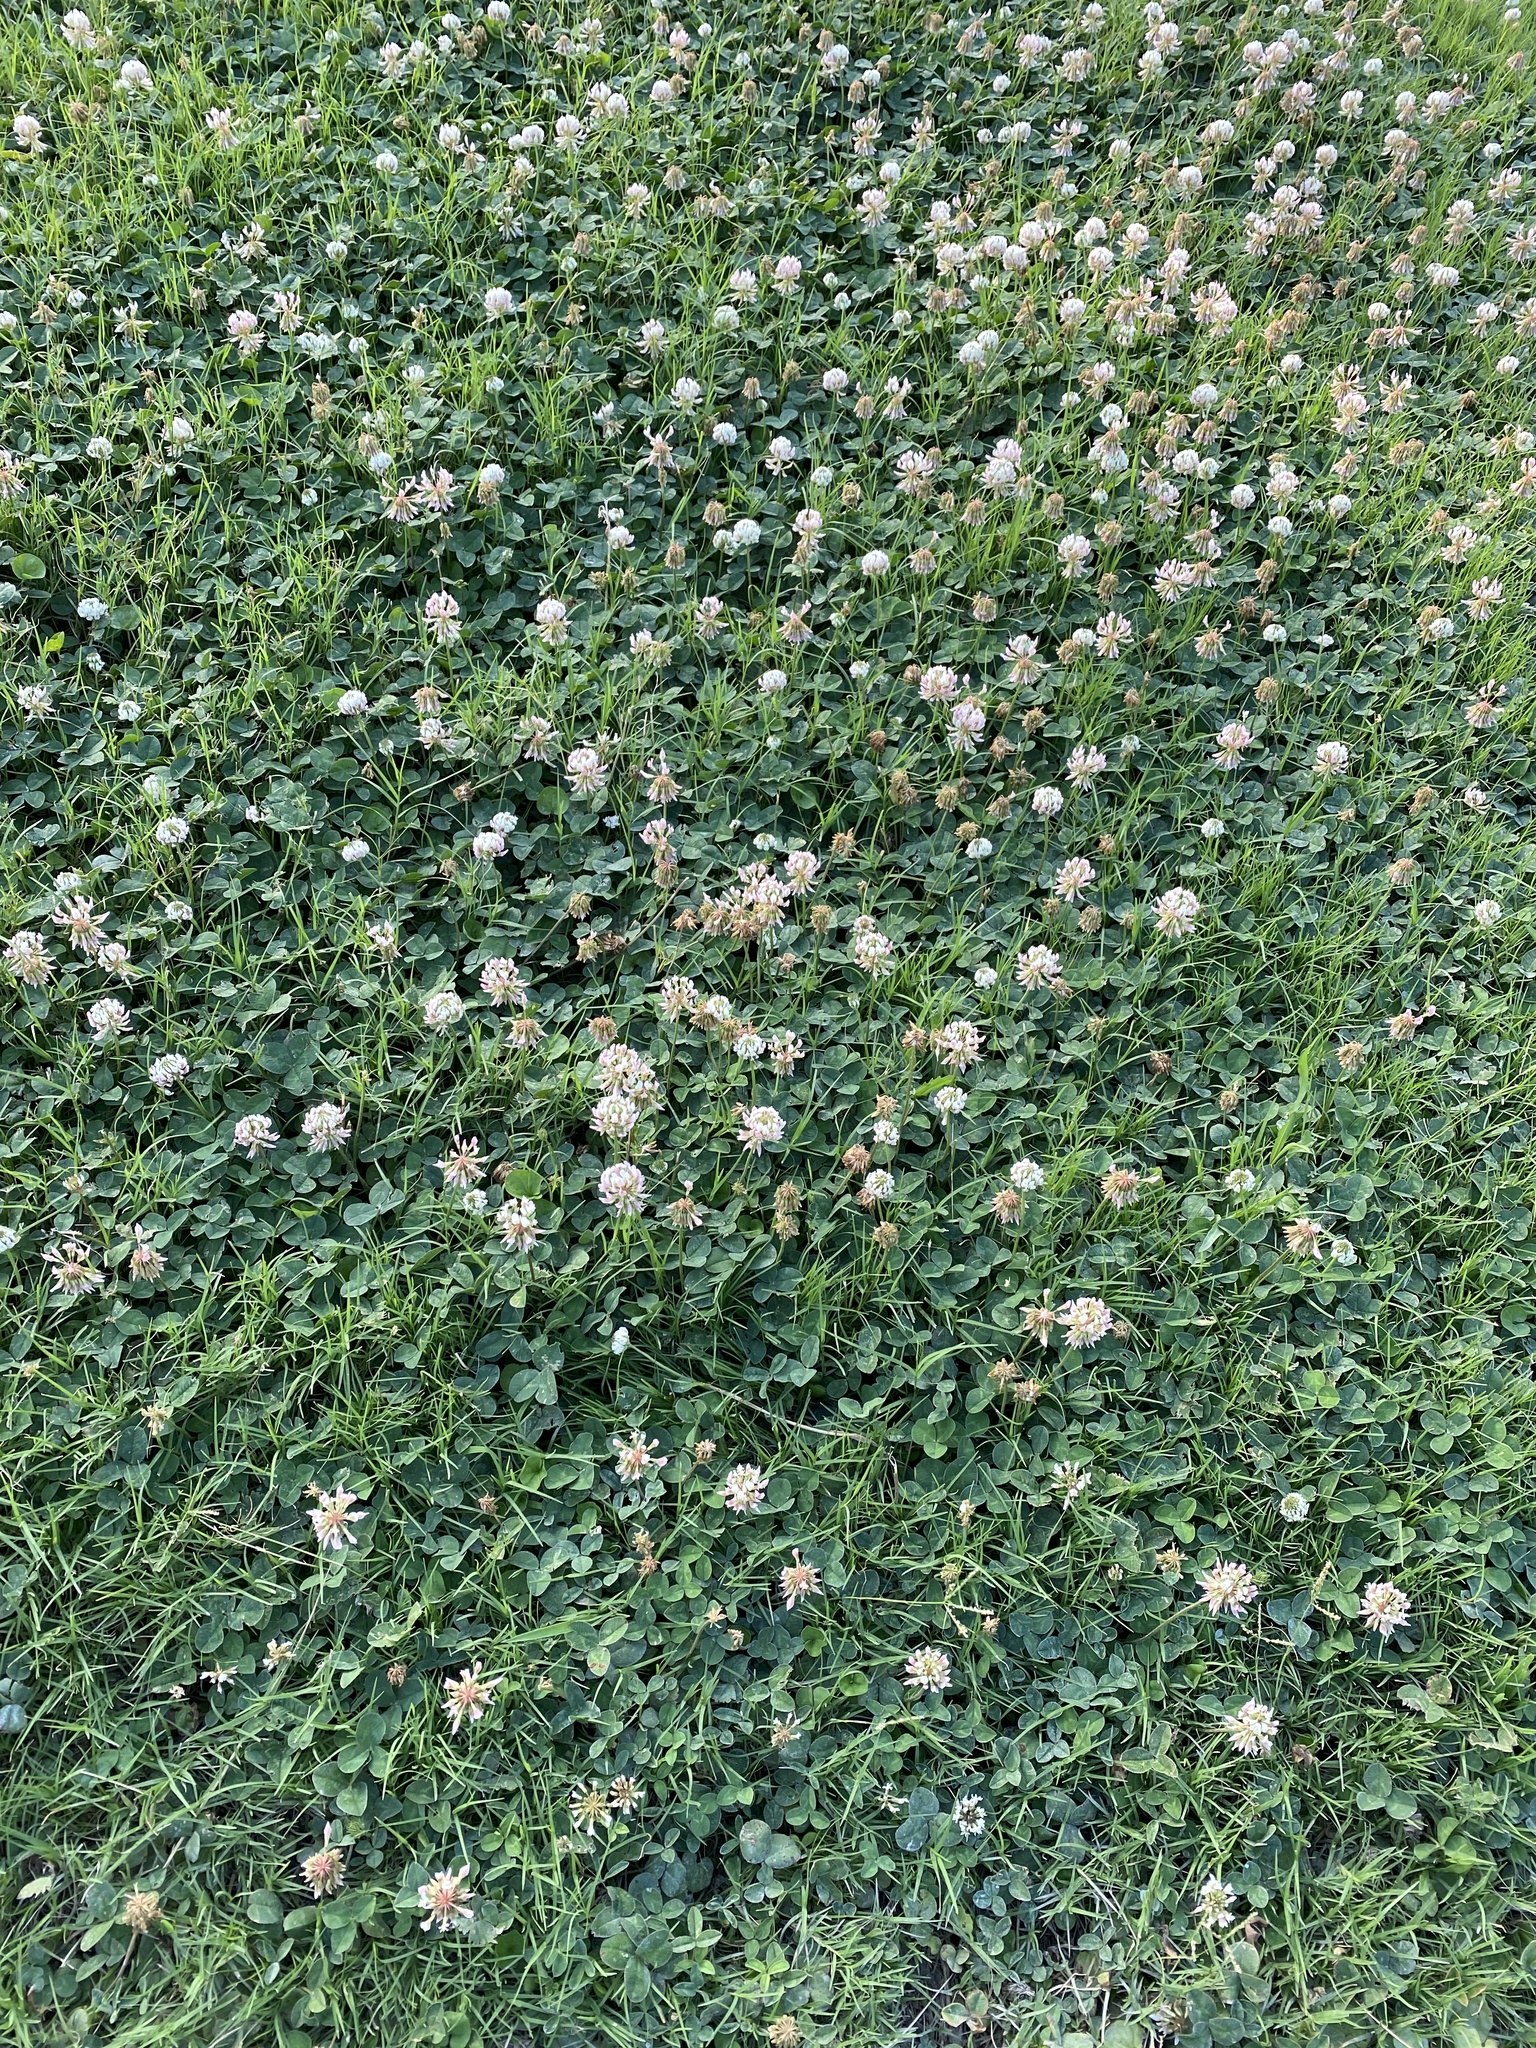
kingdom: Plantae
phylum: Tracheophyta
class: Magnoliopsida
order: Fabales
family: Fabaceae
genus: Trifolium
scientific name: Trifolium repens
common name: White clover
